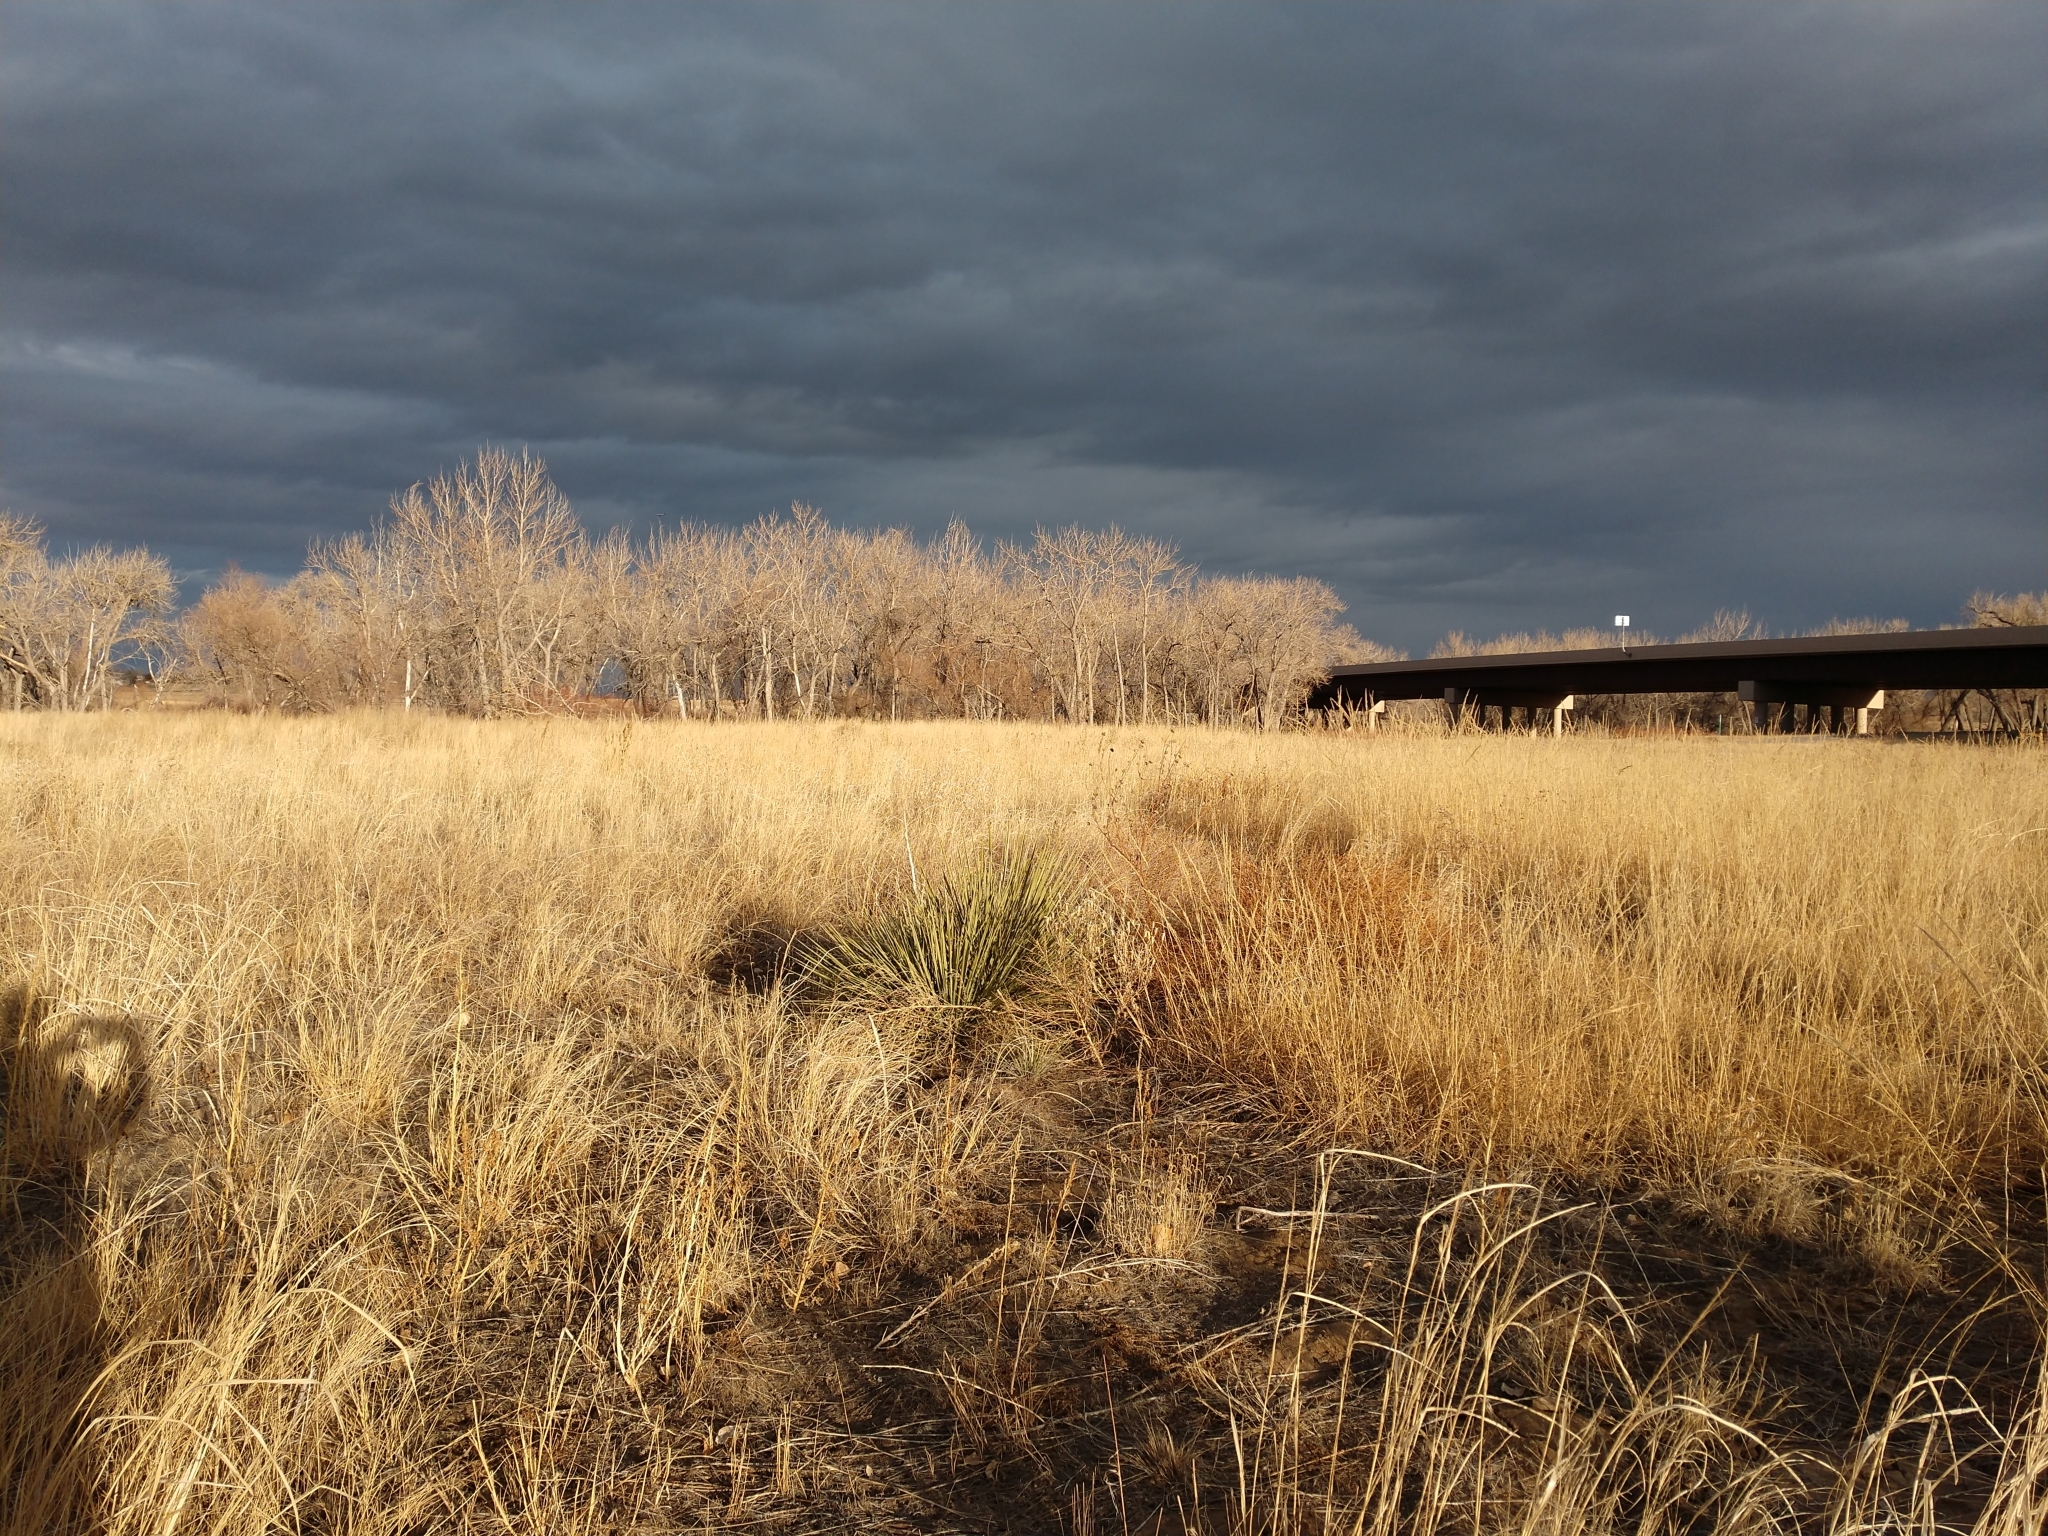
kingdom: Plantae
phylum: Tracheophyta
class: Liliopsida
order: Asparagales
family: Asparagaceae
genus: Yucca
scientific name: Yucca glauca
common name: Great plains yucca
